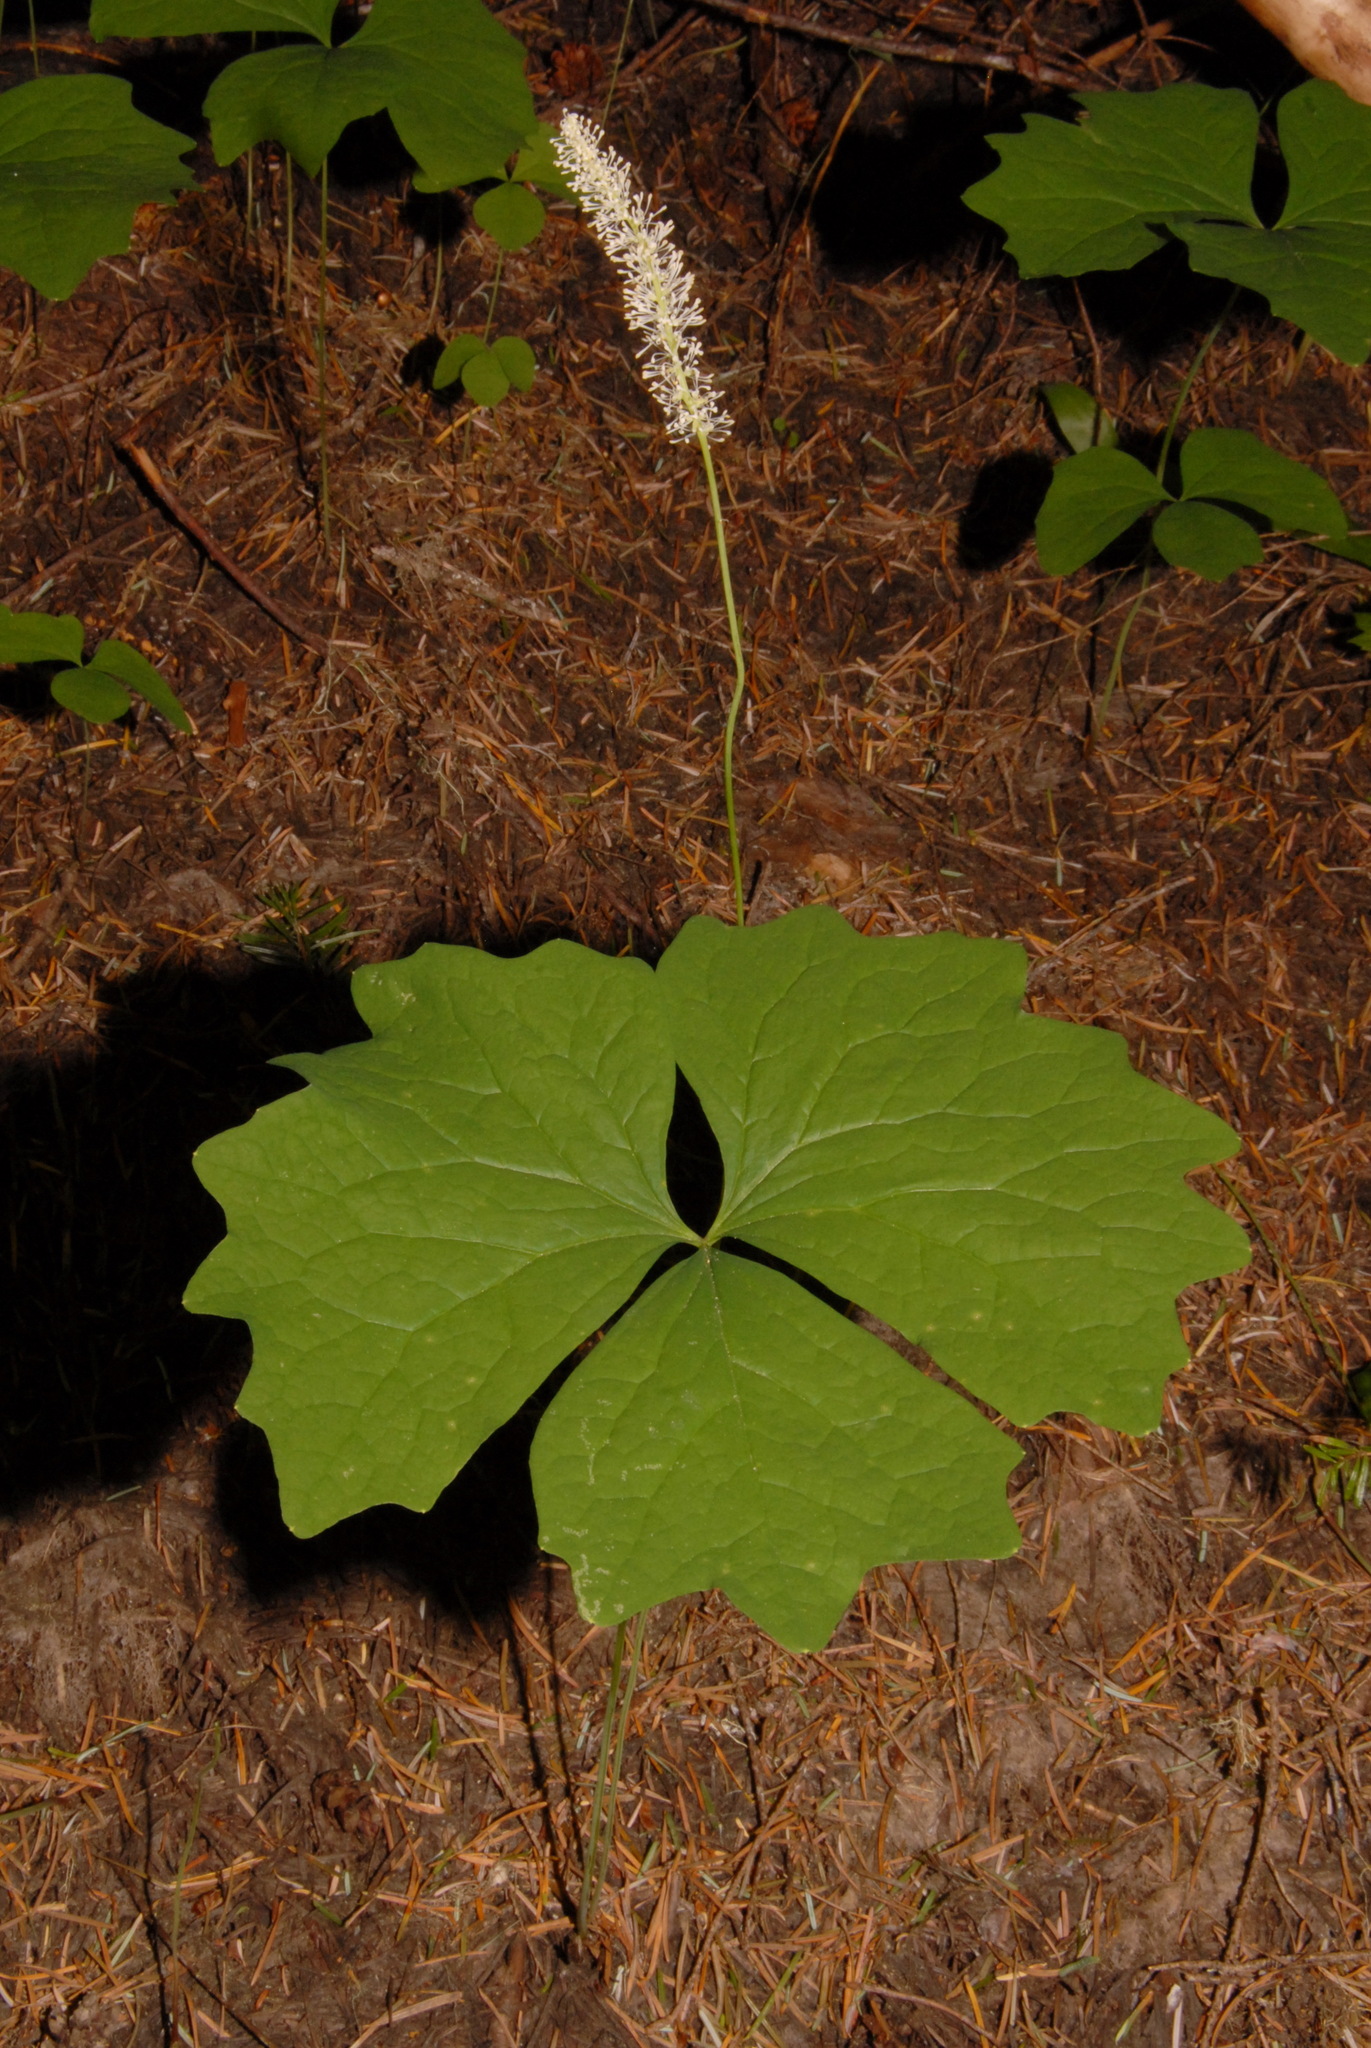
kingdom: Plantae
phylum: Tracheophyta
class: Magnoliopsida
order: Ranunculales
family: Berberidaceae
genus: Achlys
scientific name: Achlys triphylla
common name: Vanilla-leaf
